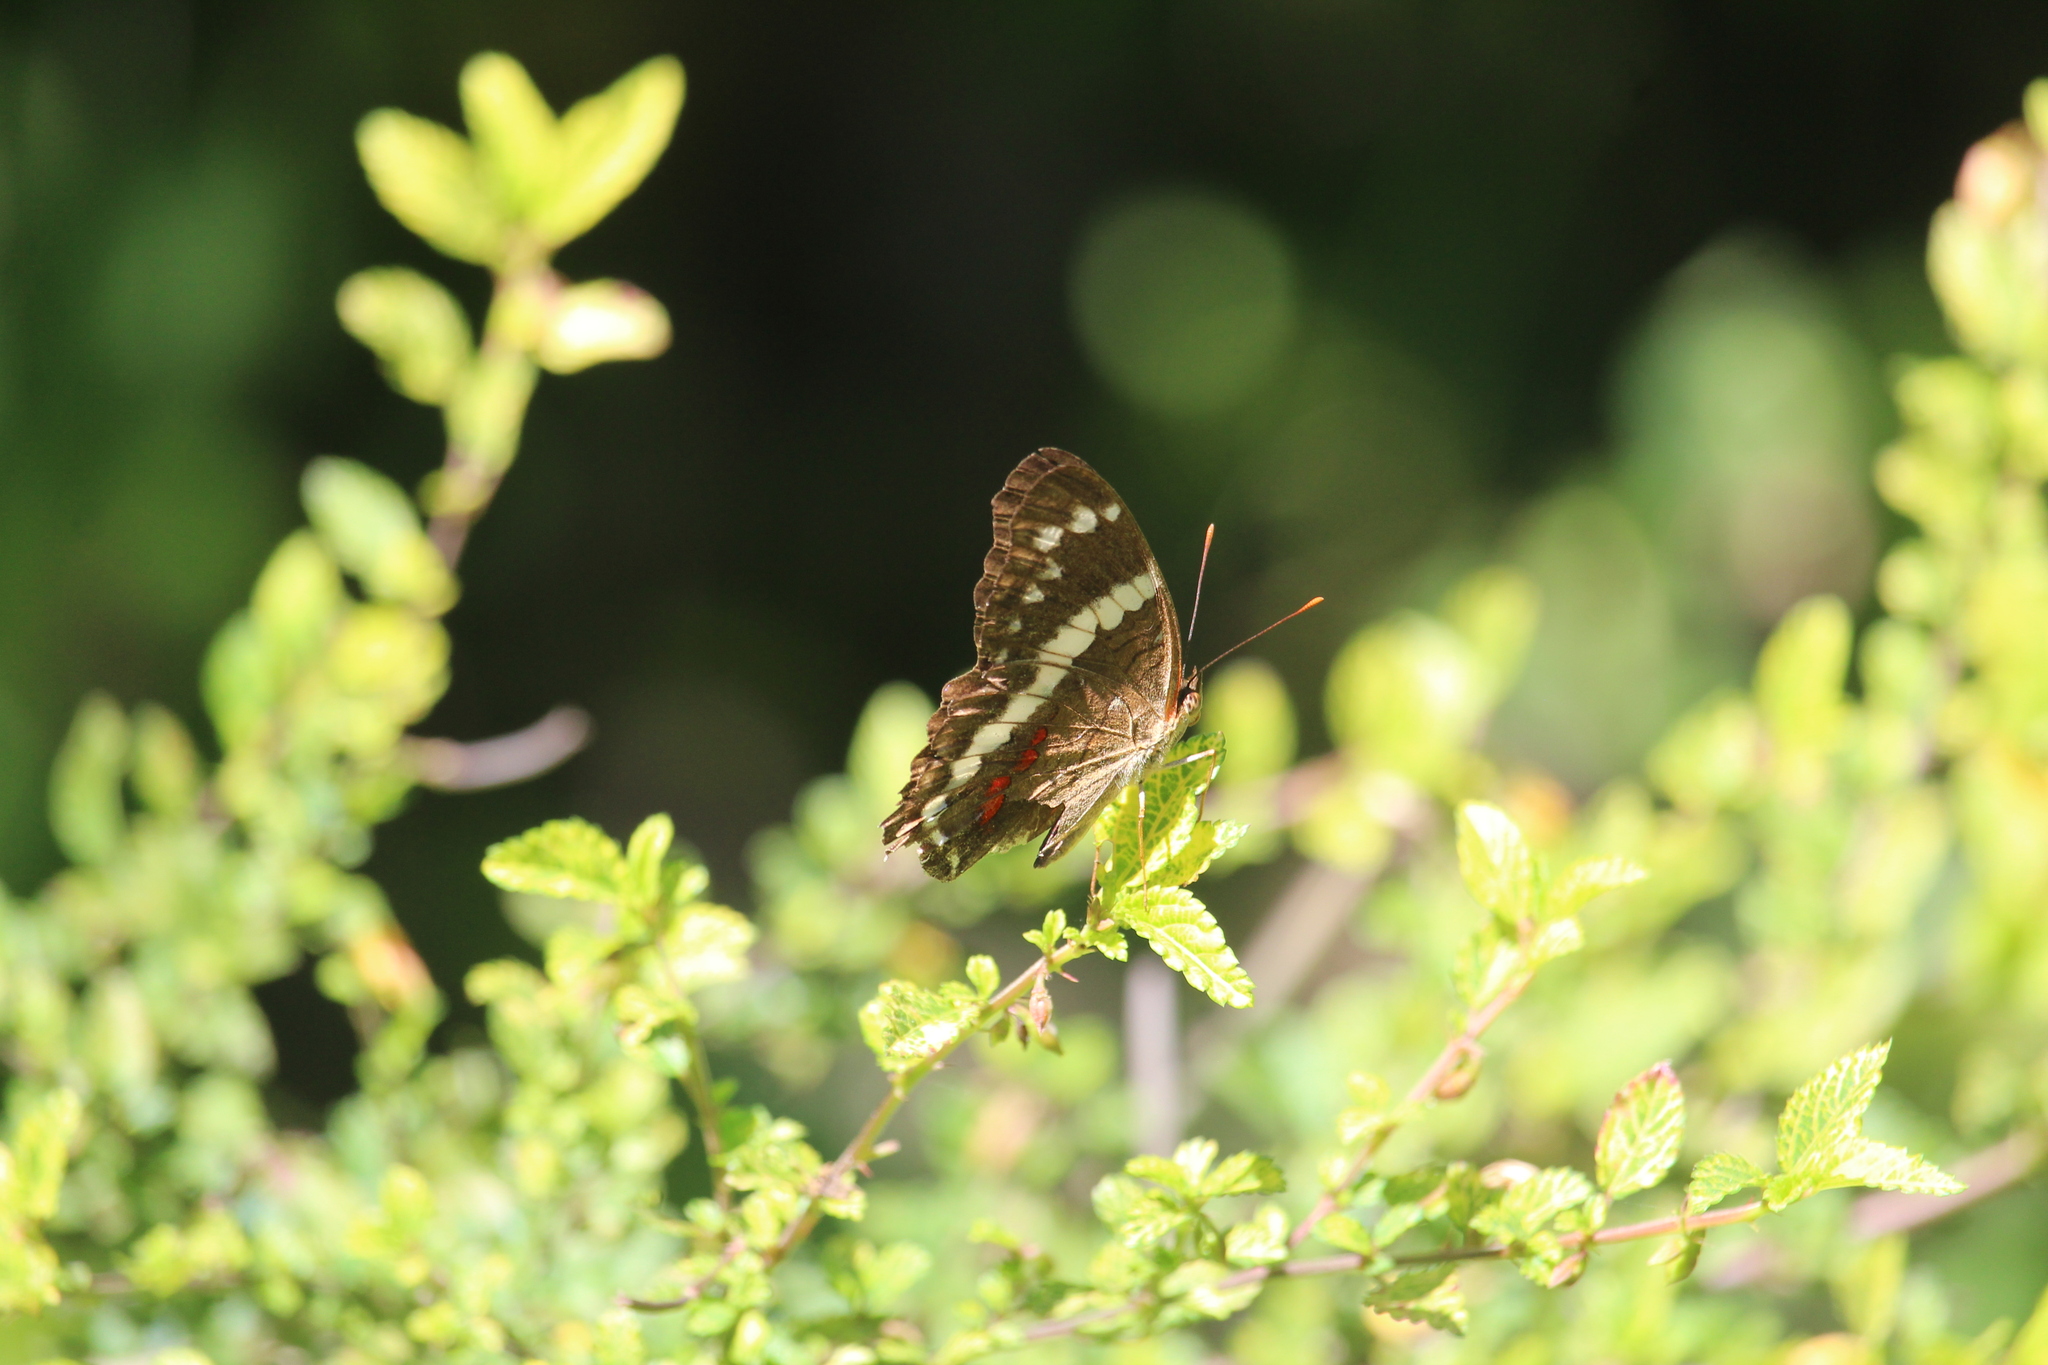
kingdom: Animalia
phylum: Arthropoda
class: Insecta
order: Lepidoptera
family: Nymphalidae
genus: Anartia
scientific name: Anartia fatima
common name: Banded peacock
